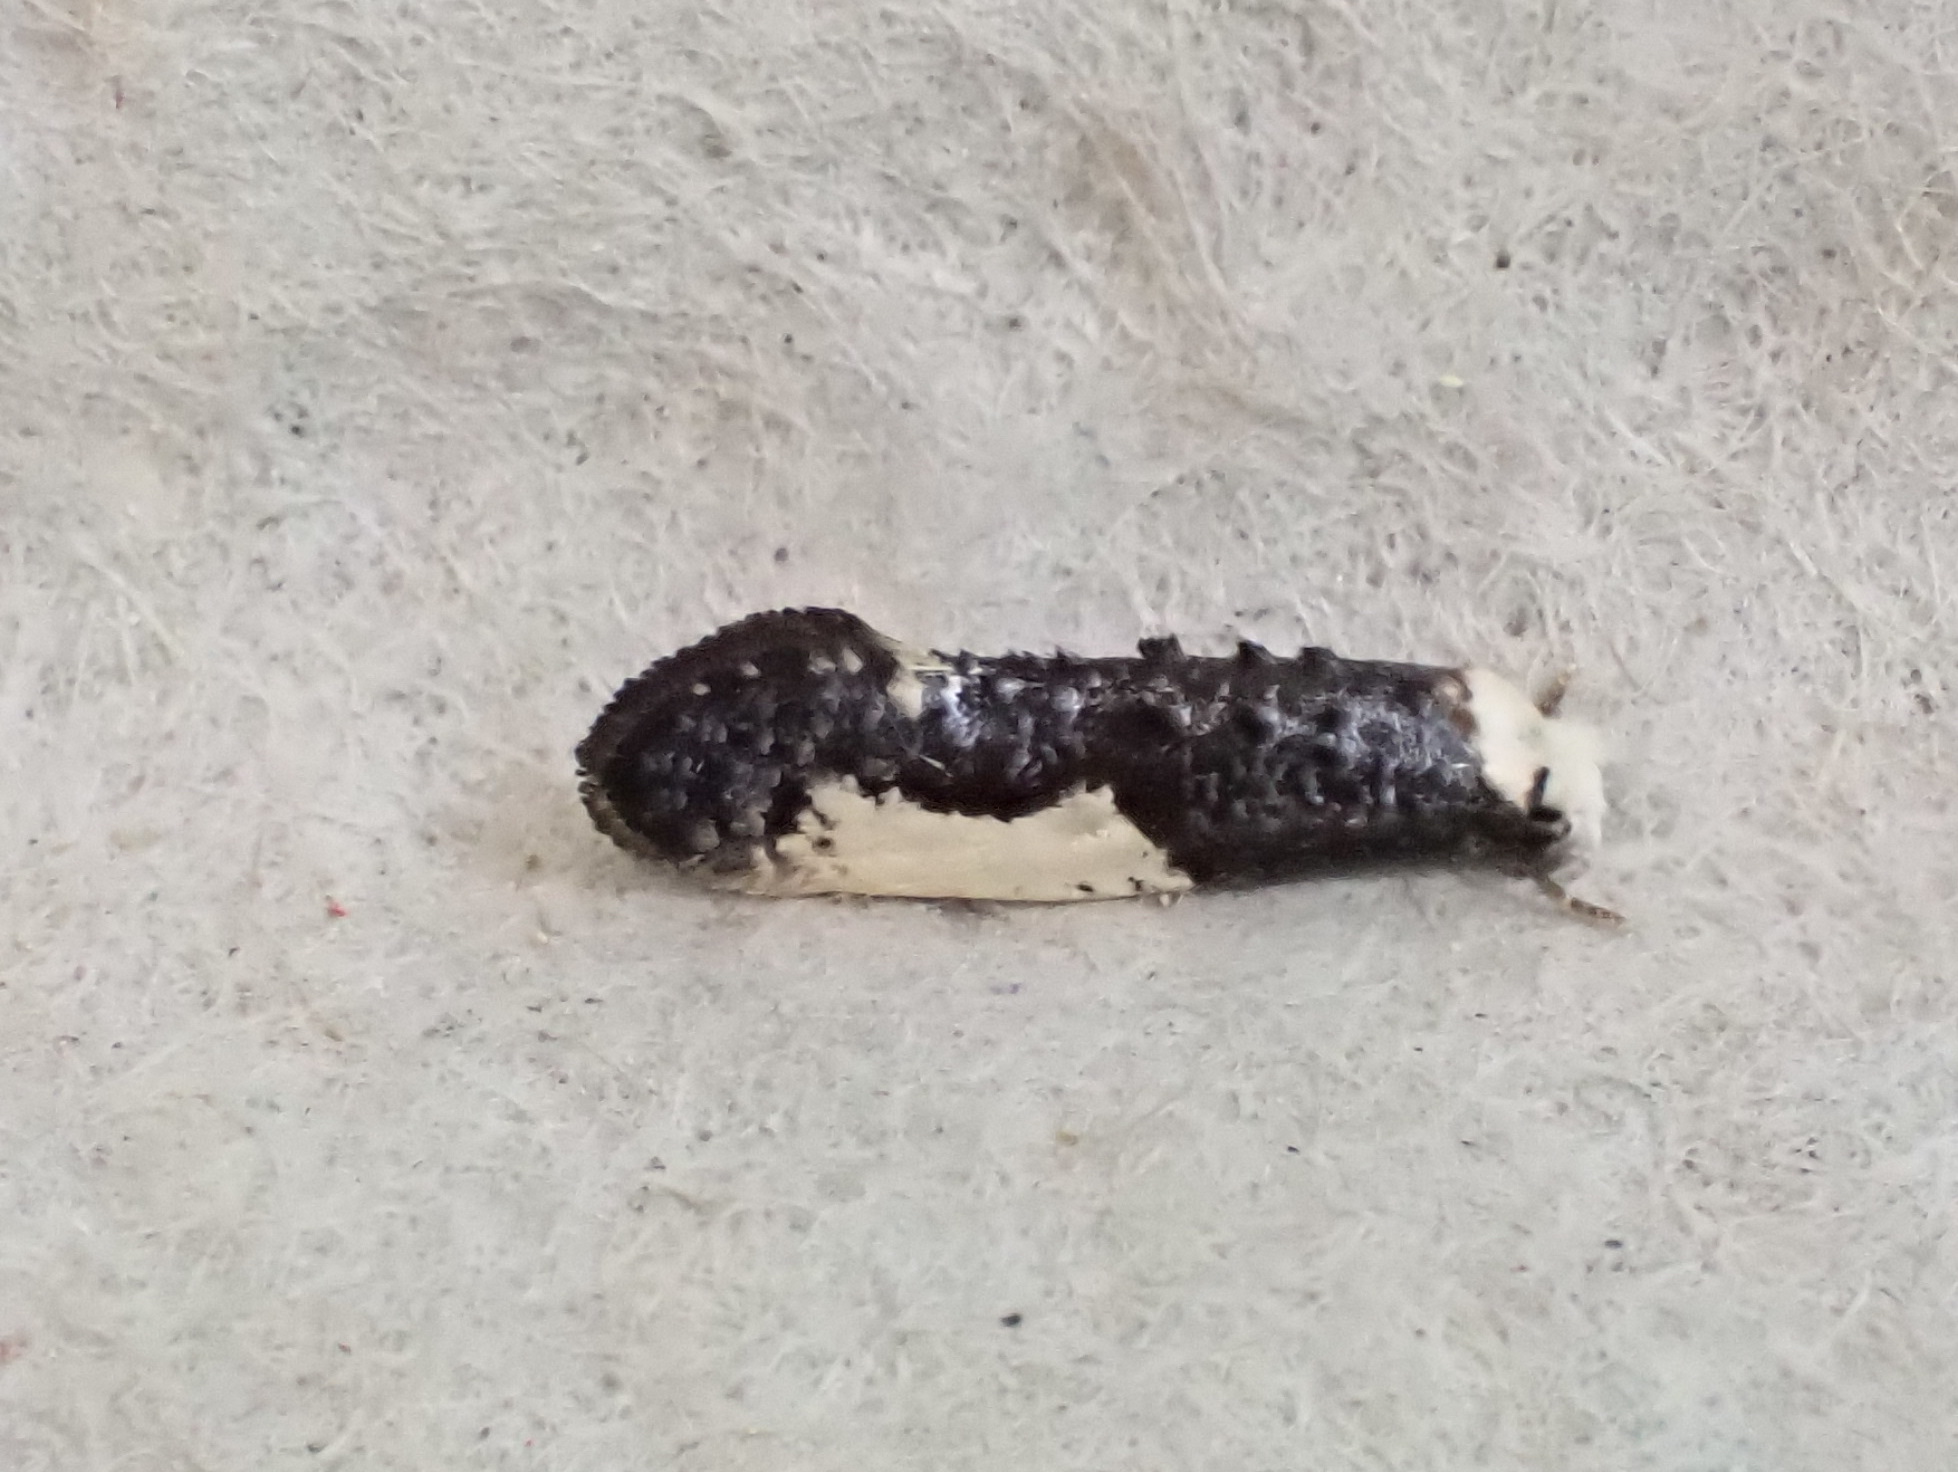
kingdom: Animalia
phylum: Arthropoda
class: Insecta
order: Lepidoptera
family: Tineidae
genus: Monopis
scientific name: Monopis monachella
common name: Moth
